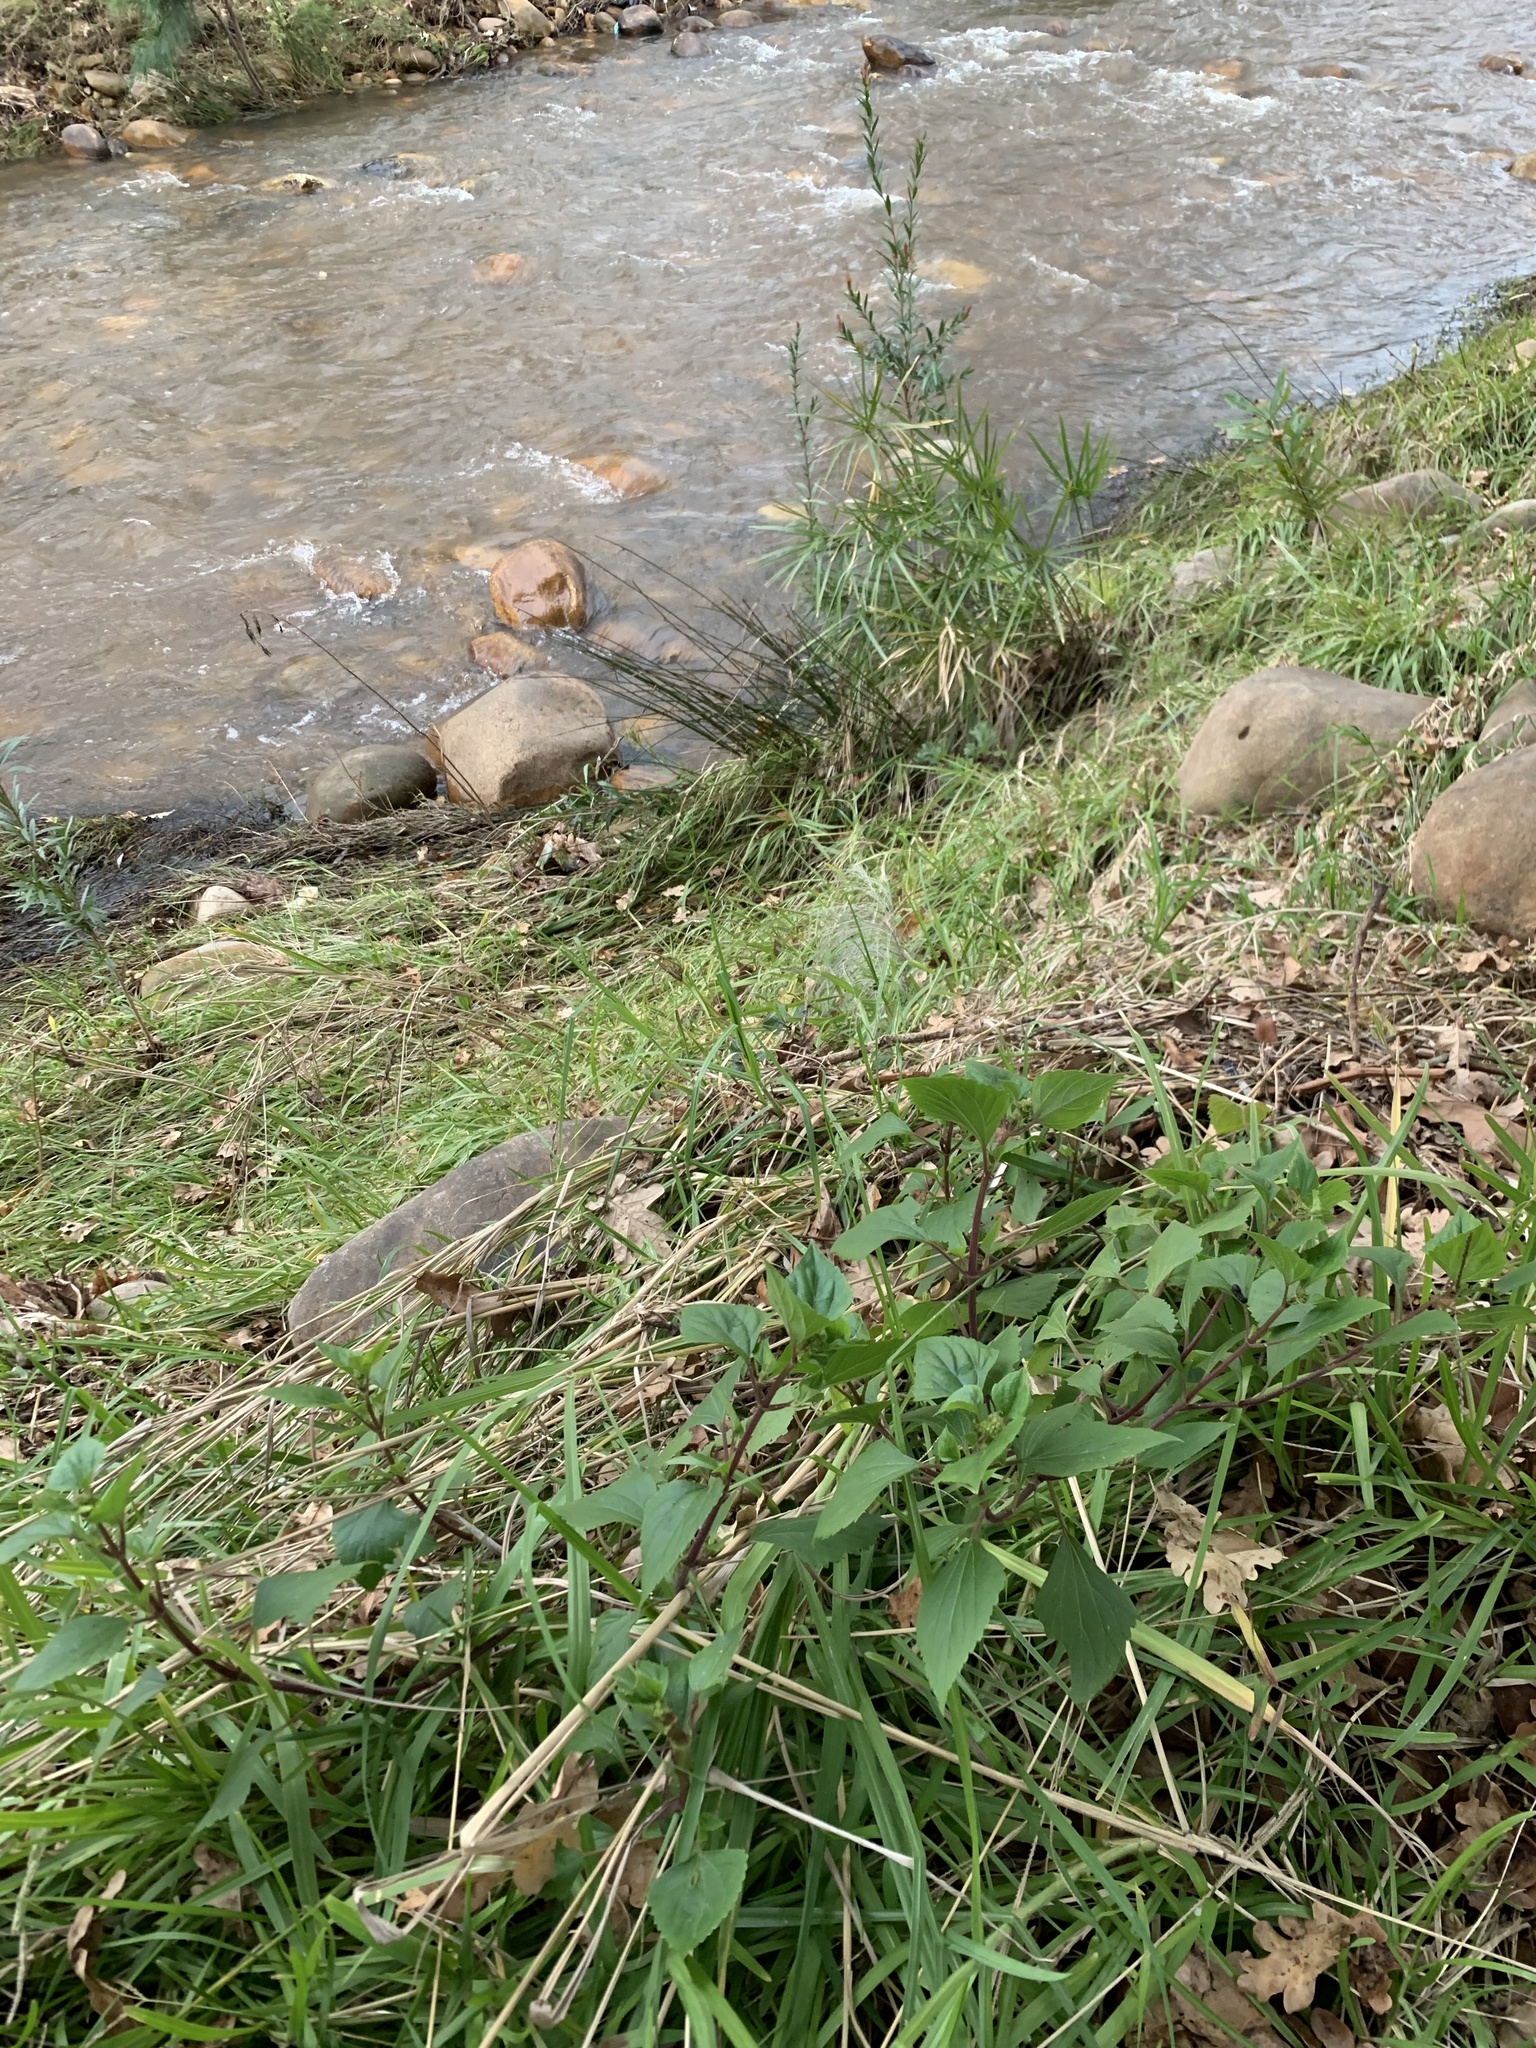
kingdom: Plantae
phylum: Tracheophyta
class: Magnoliopsida
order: Asterales
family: Asteraceae
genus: Ageratina
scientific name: Ageratina adenophora
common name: Sticky snakeroot
